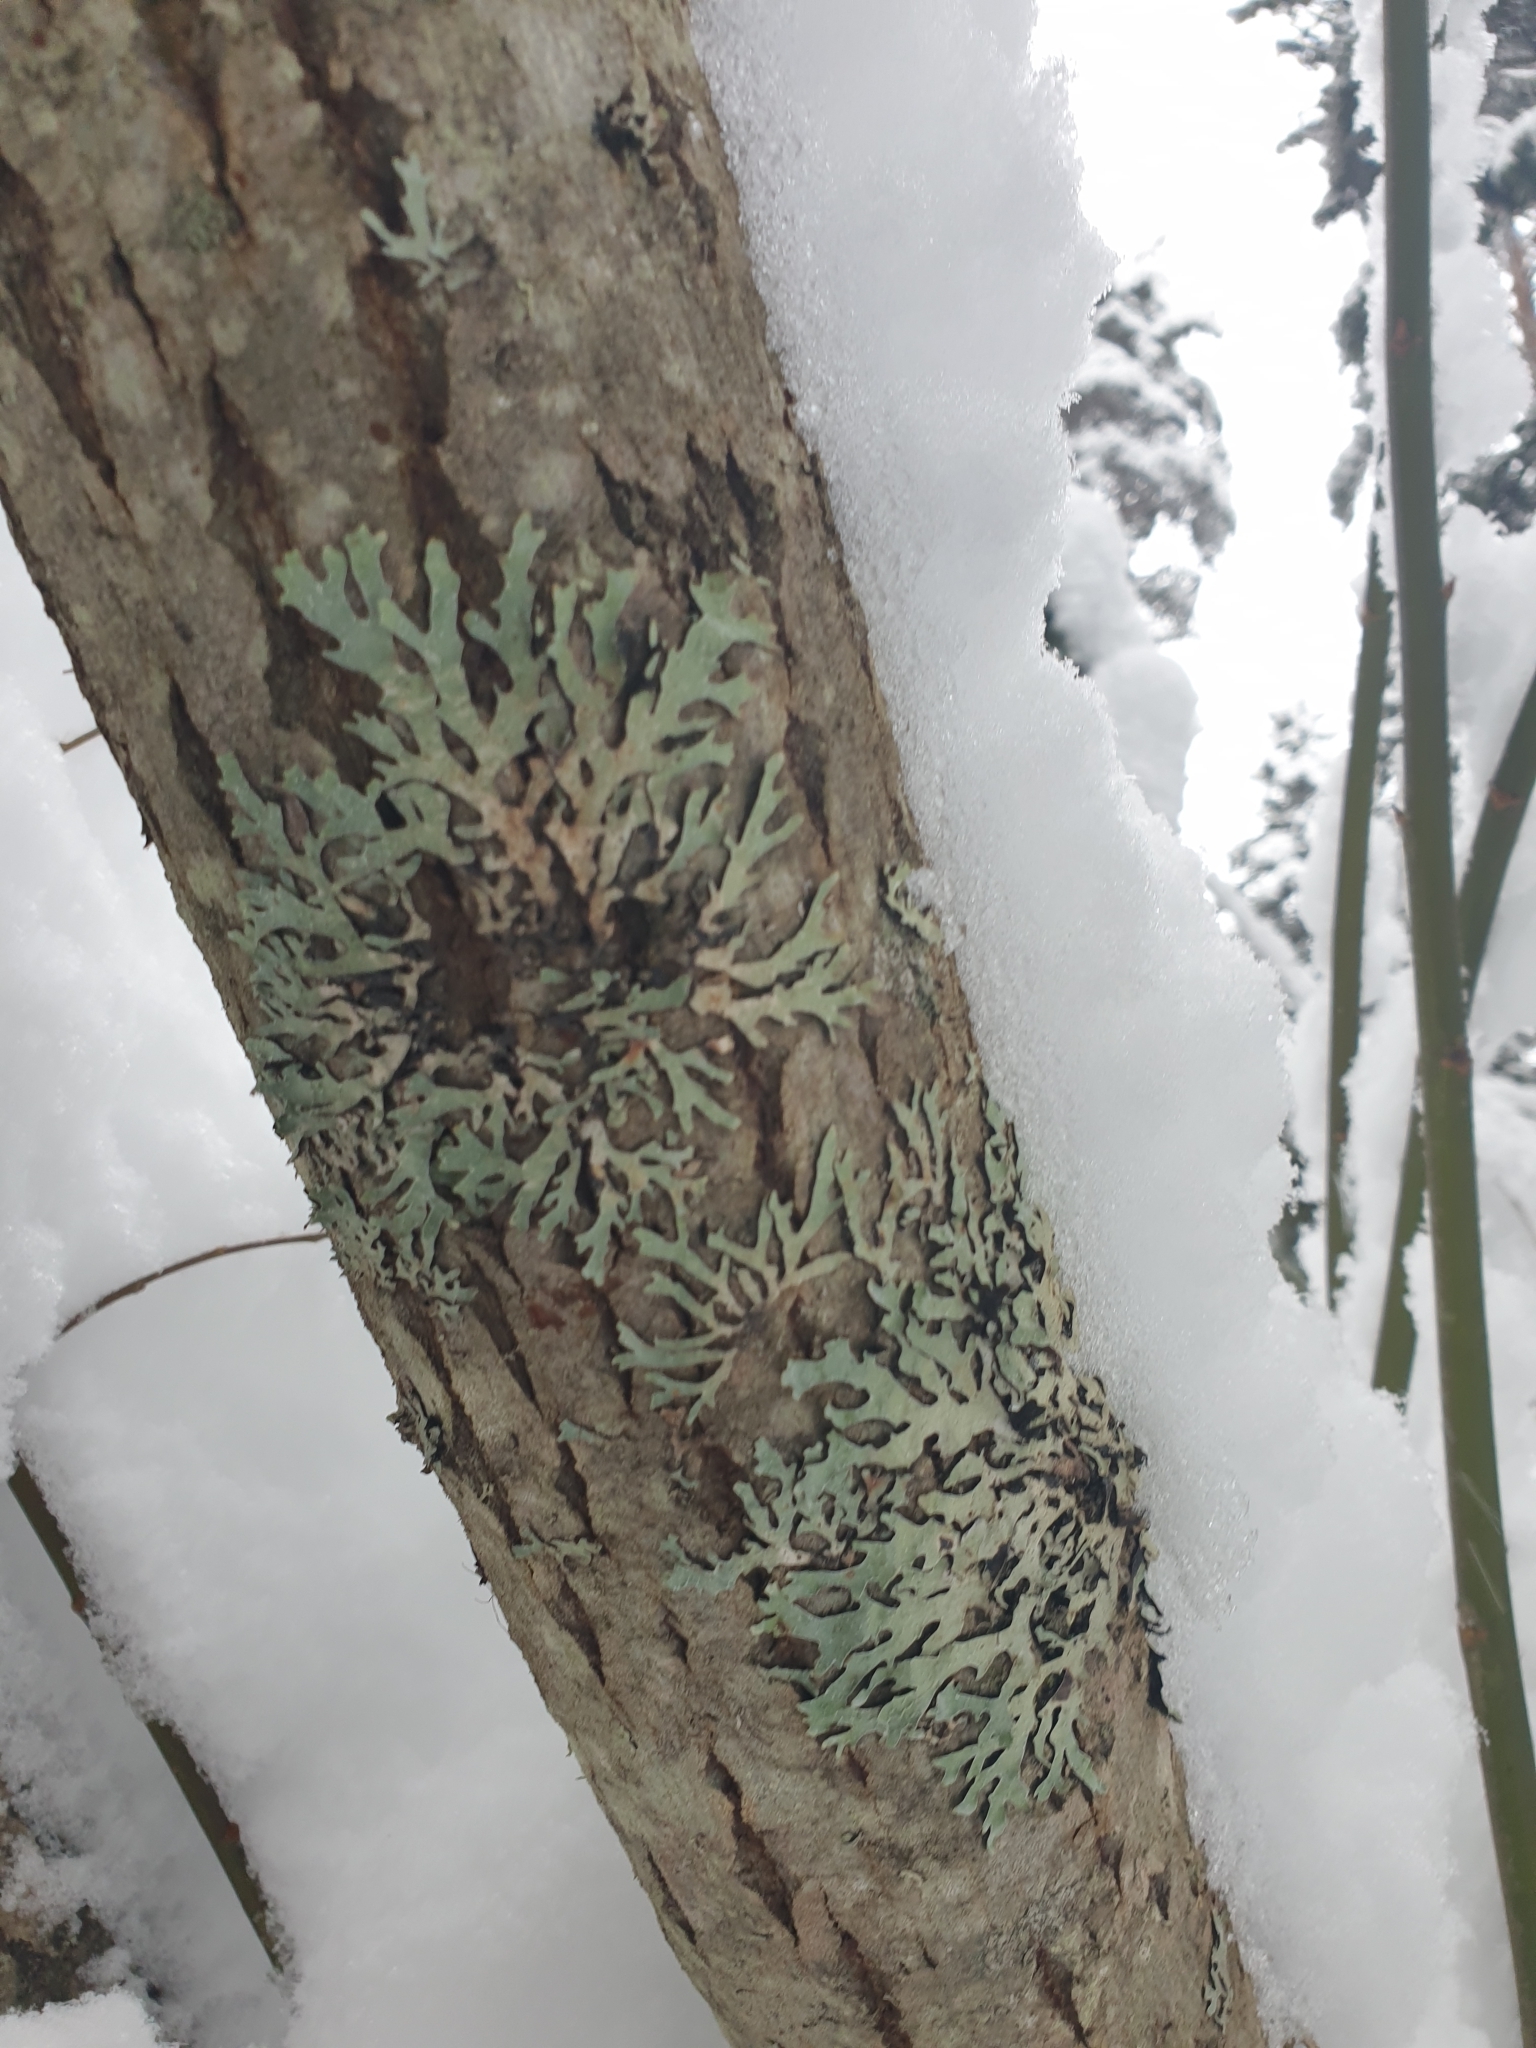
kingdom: Fungi
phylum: Ascomycota
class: Lecanoromycetes
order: Lecanorales
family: Parmeliaceae
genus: Parmelia
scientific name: Parmelia sulcata
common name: Netted shield lichen
